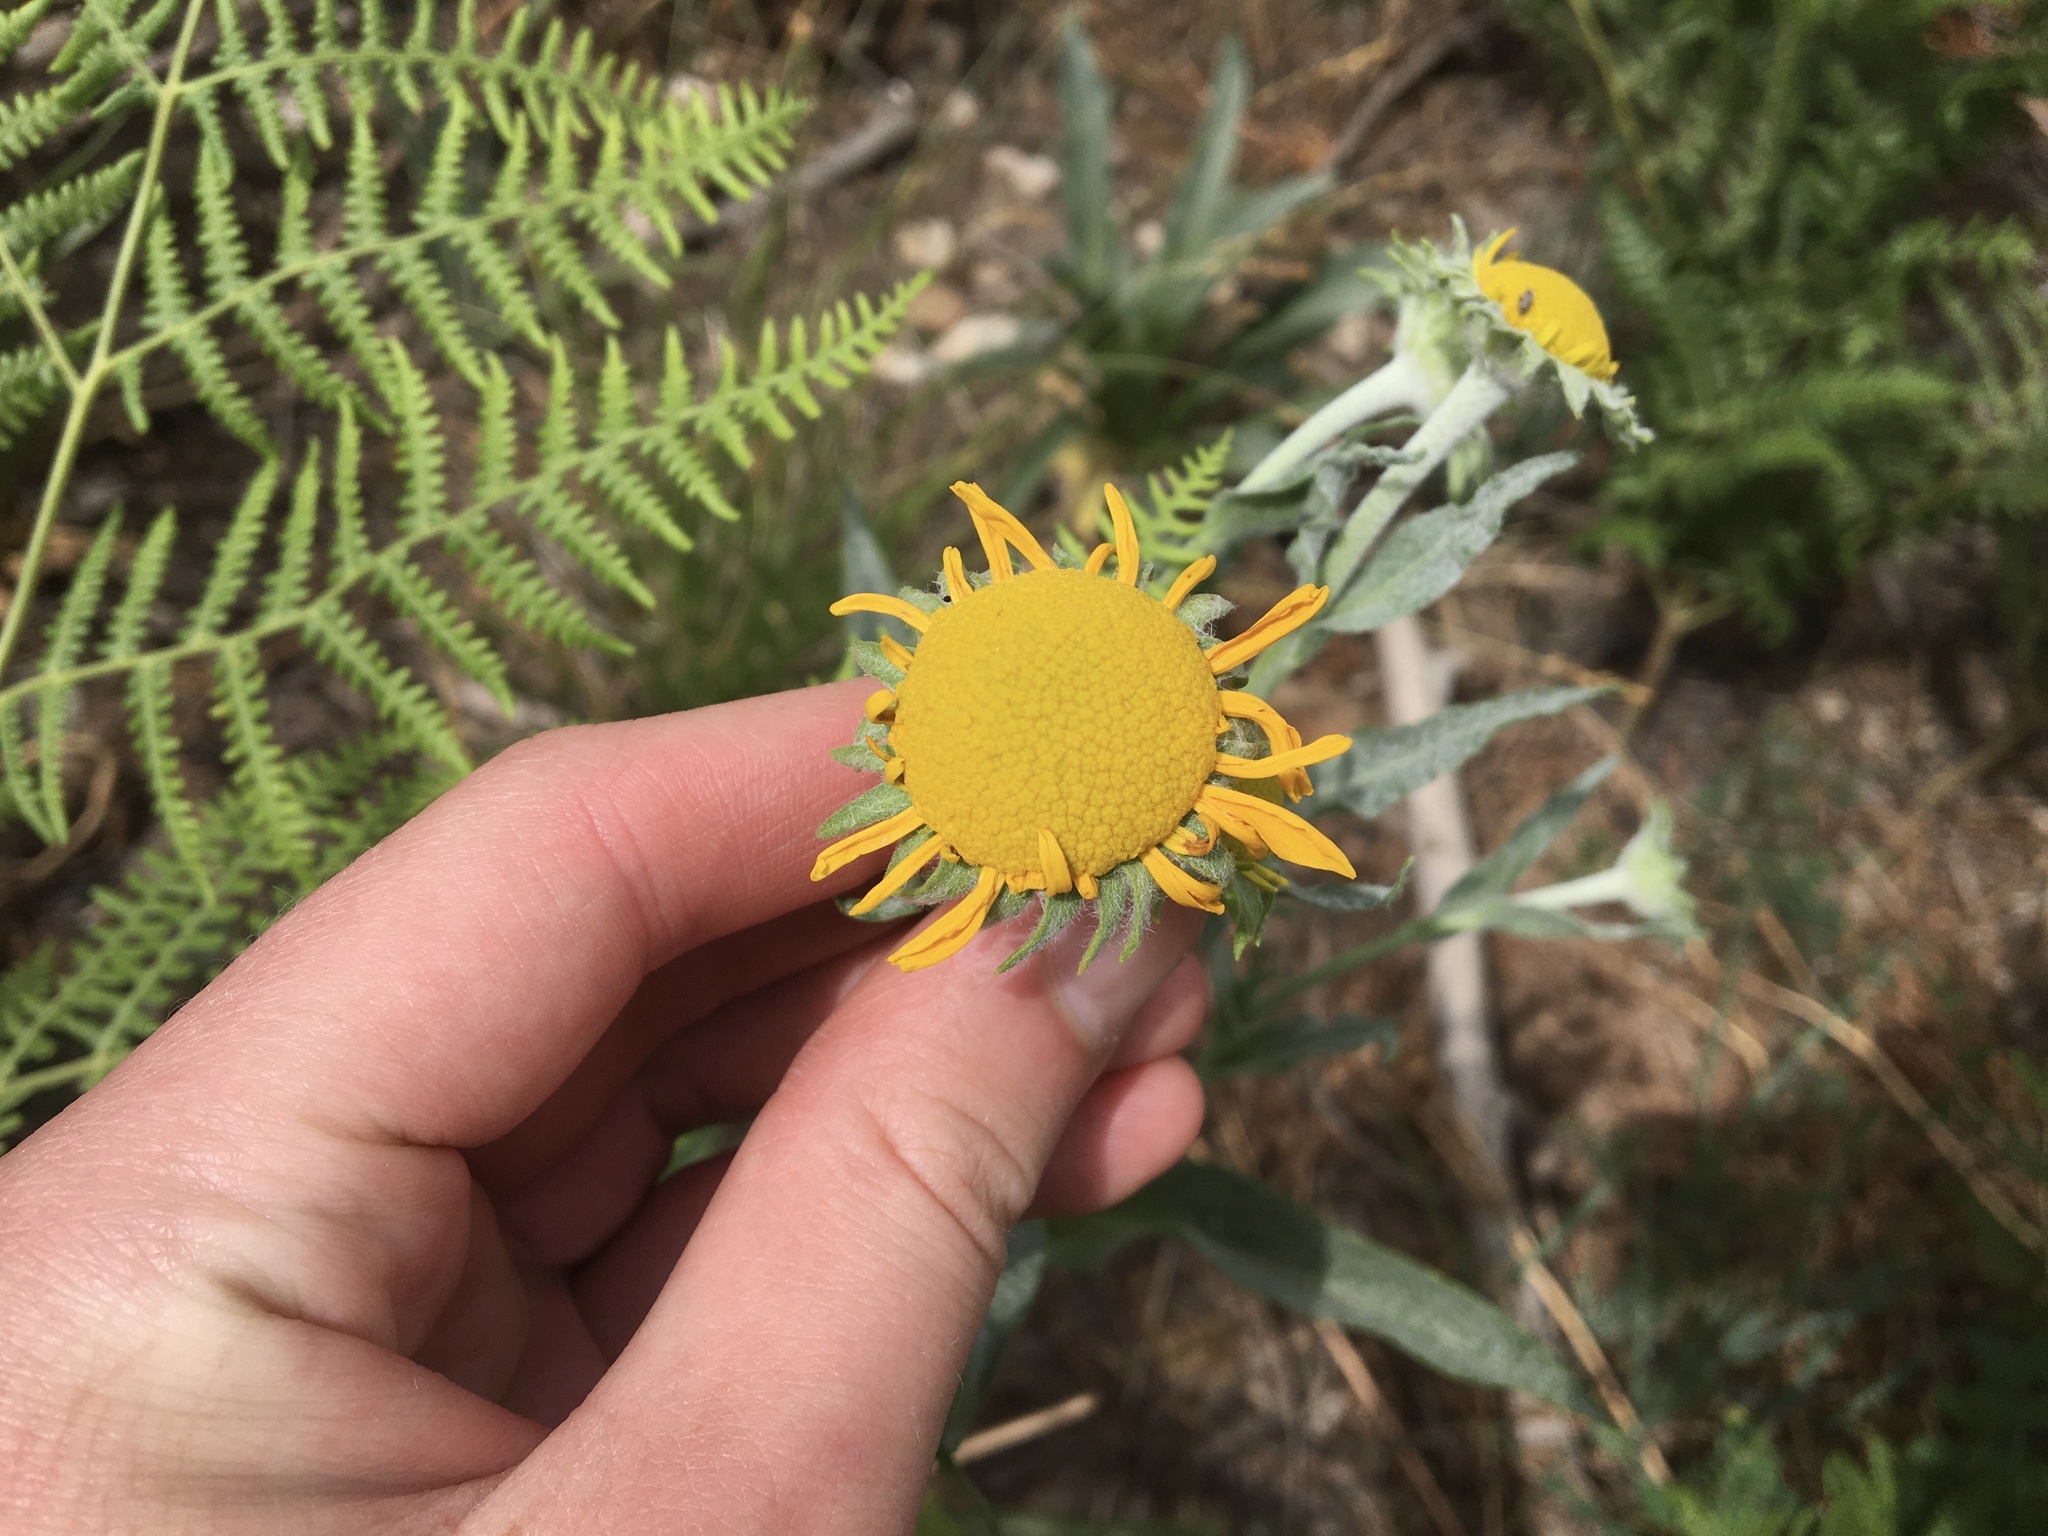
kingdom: Plantae
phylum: Tracheophyta
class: Magnoliopsida
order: Asterales
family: Asteraceae
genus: Hymenoxys
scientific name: Hymenoxys hoopesii
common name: Orange-sneezeweed
